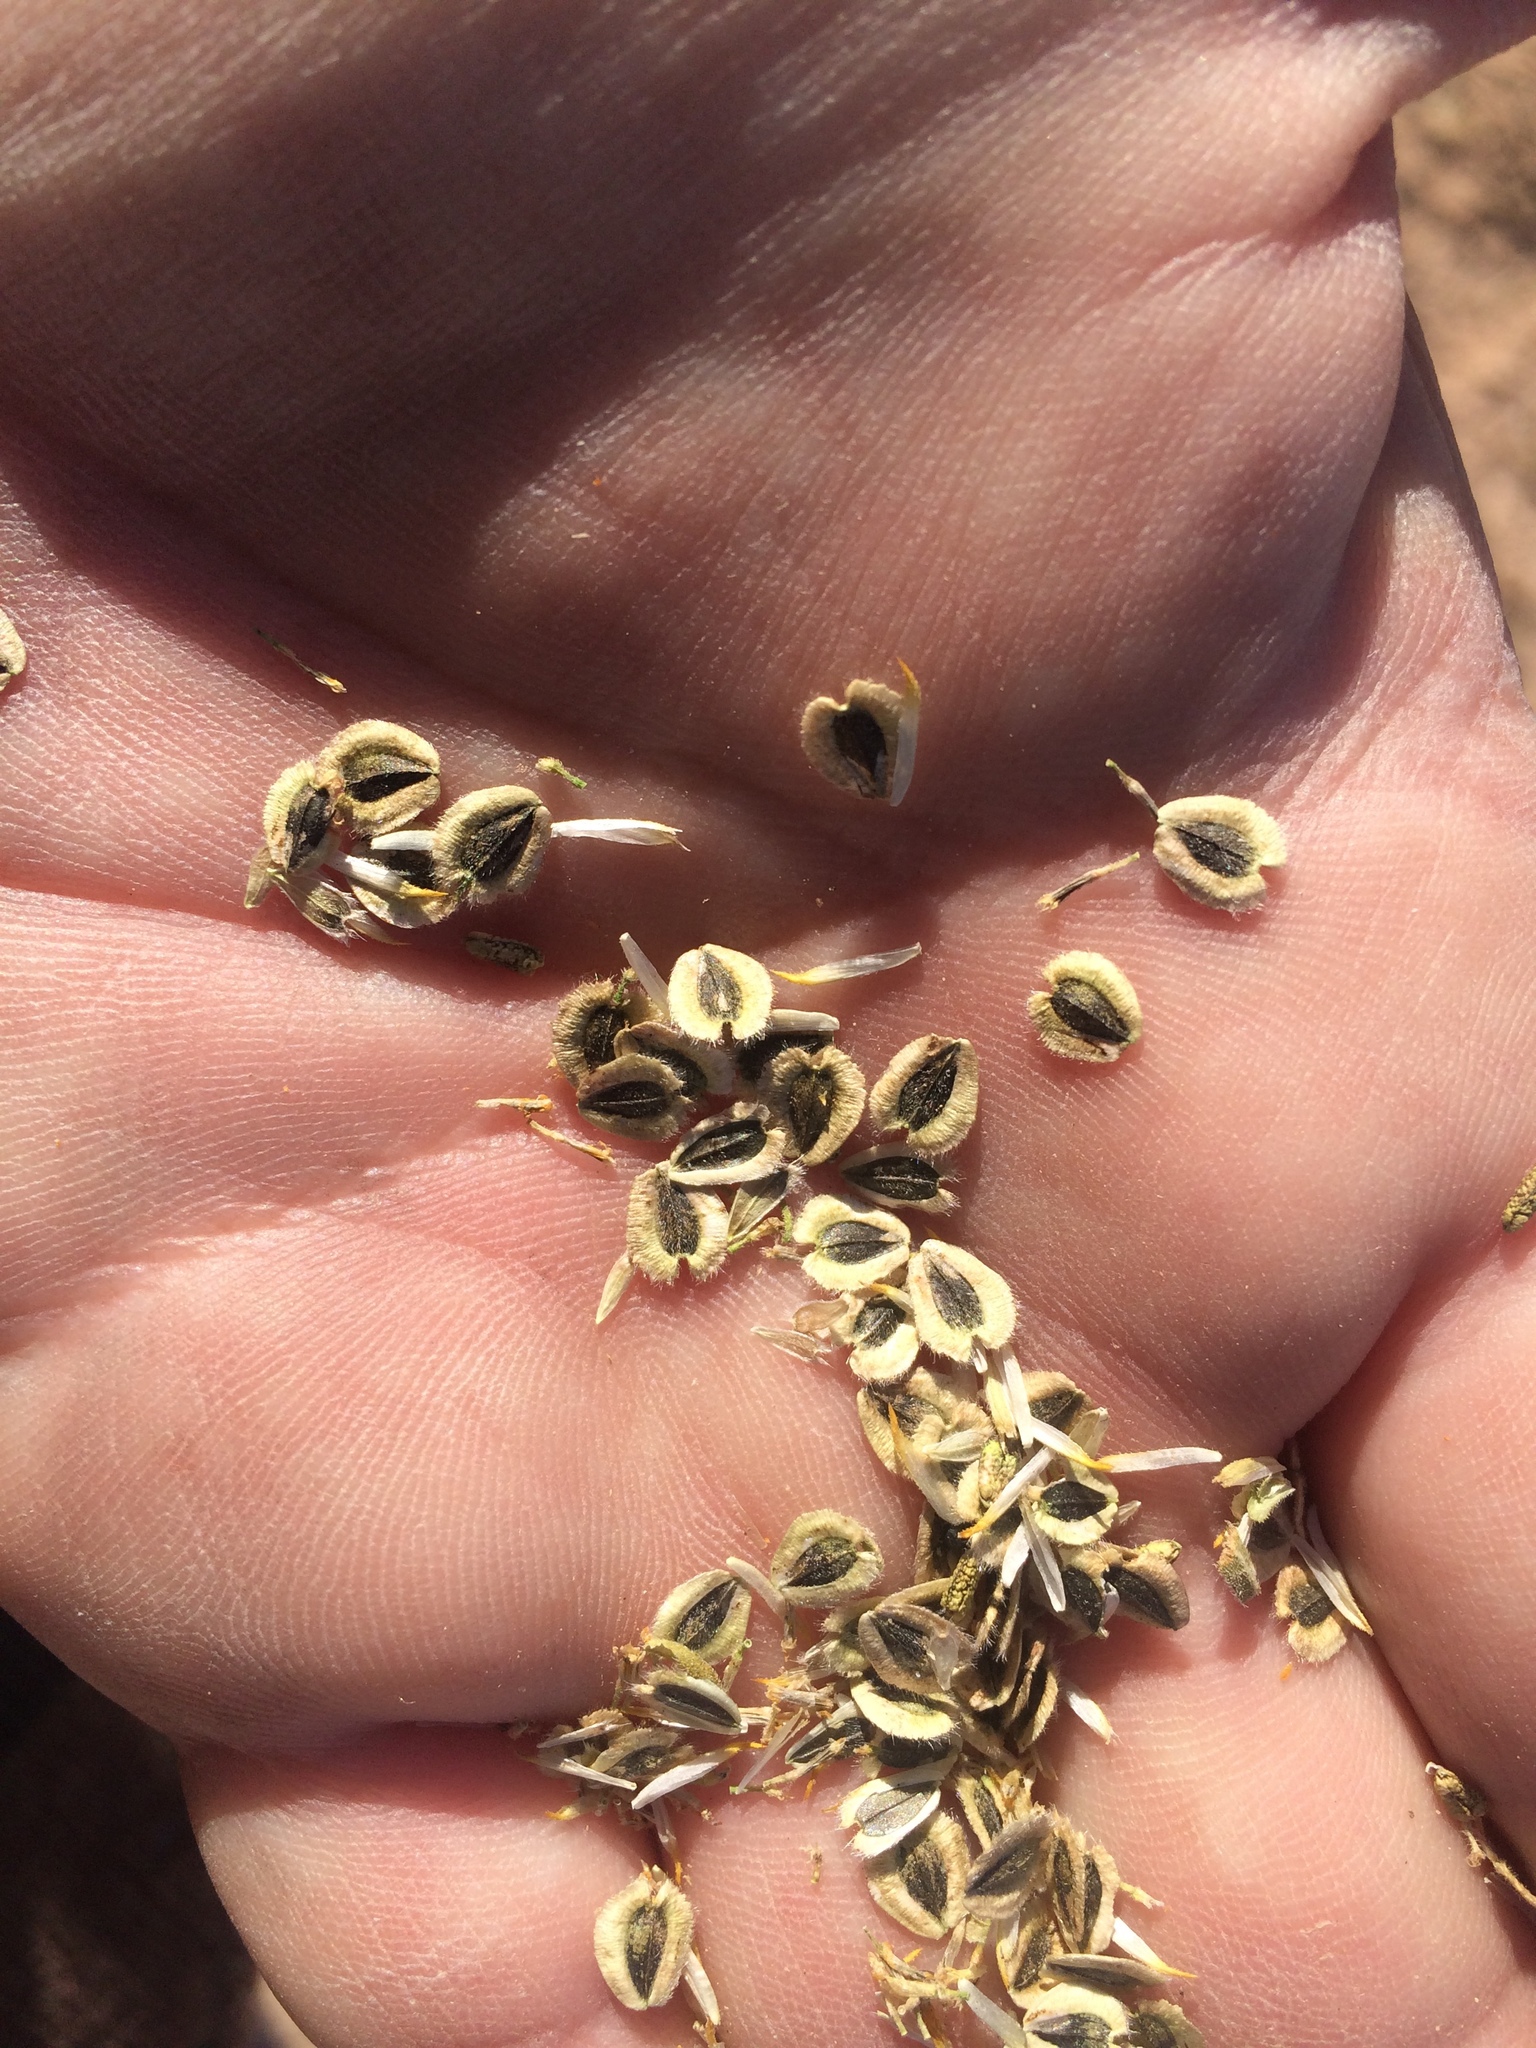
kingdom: Plantae
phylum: Tracheophyta
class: Magnoliopsida
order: Asterales
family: Asteraceae
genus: Verbesina
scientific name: Verbesina encelioides
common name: Golden crownbeard
